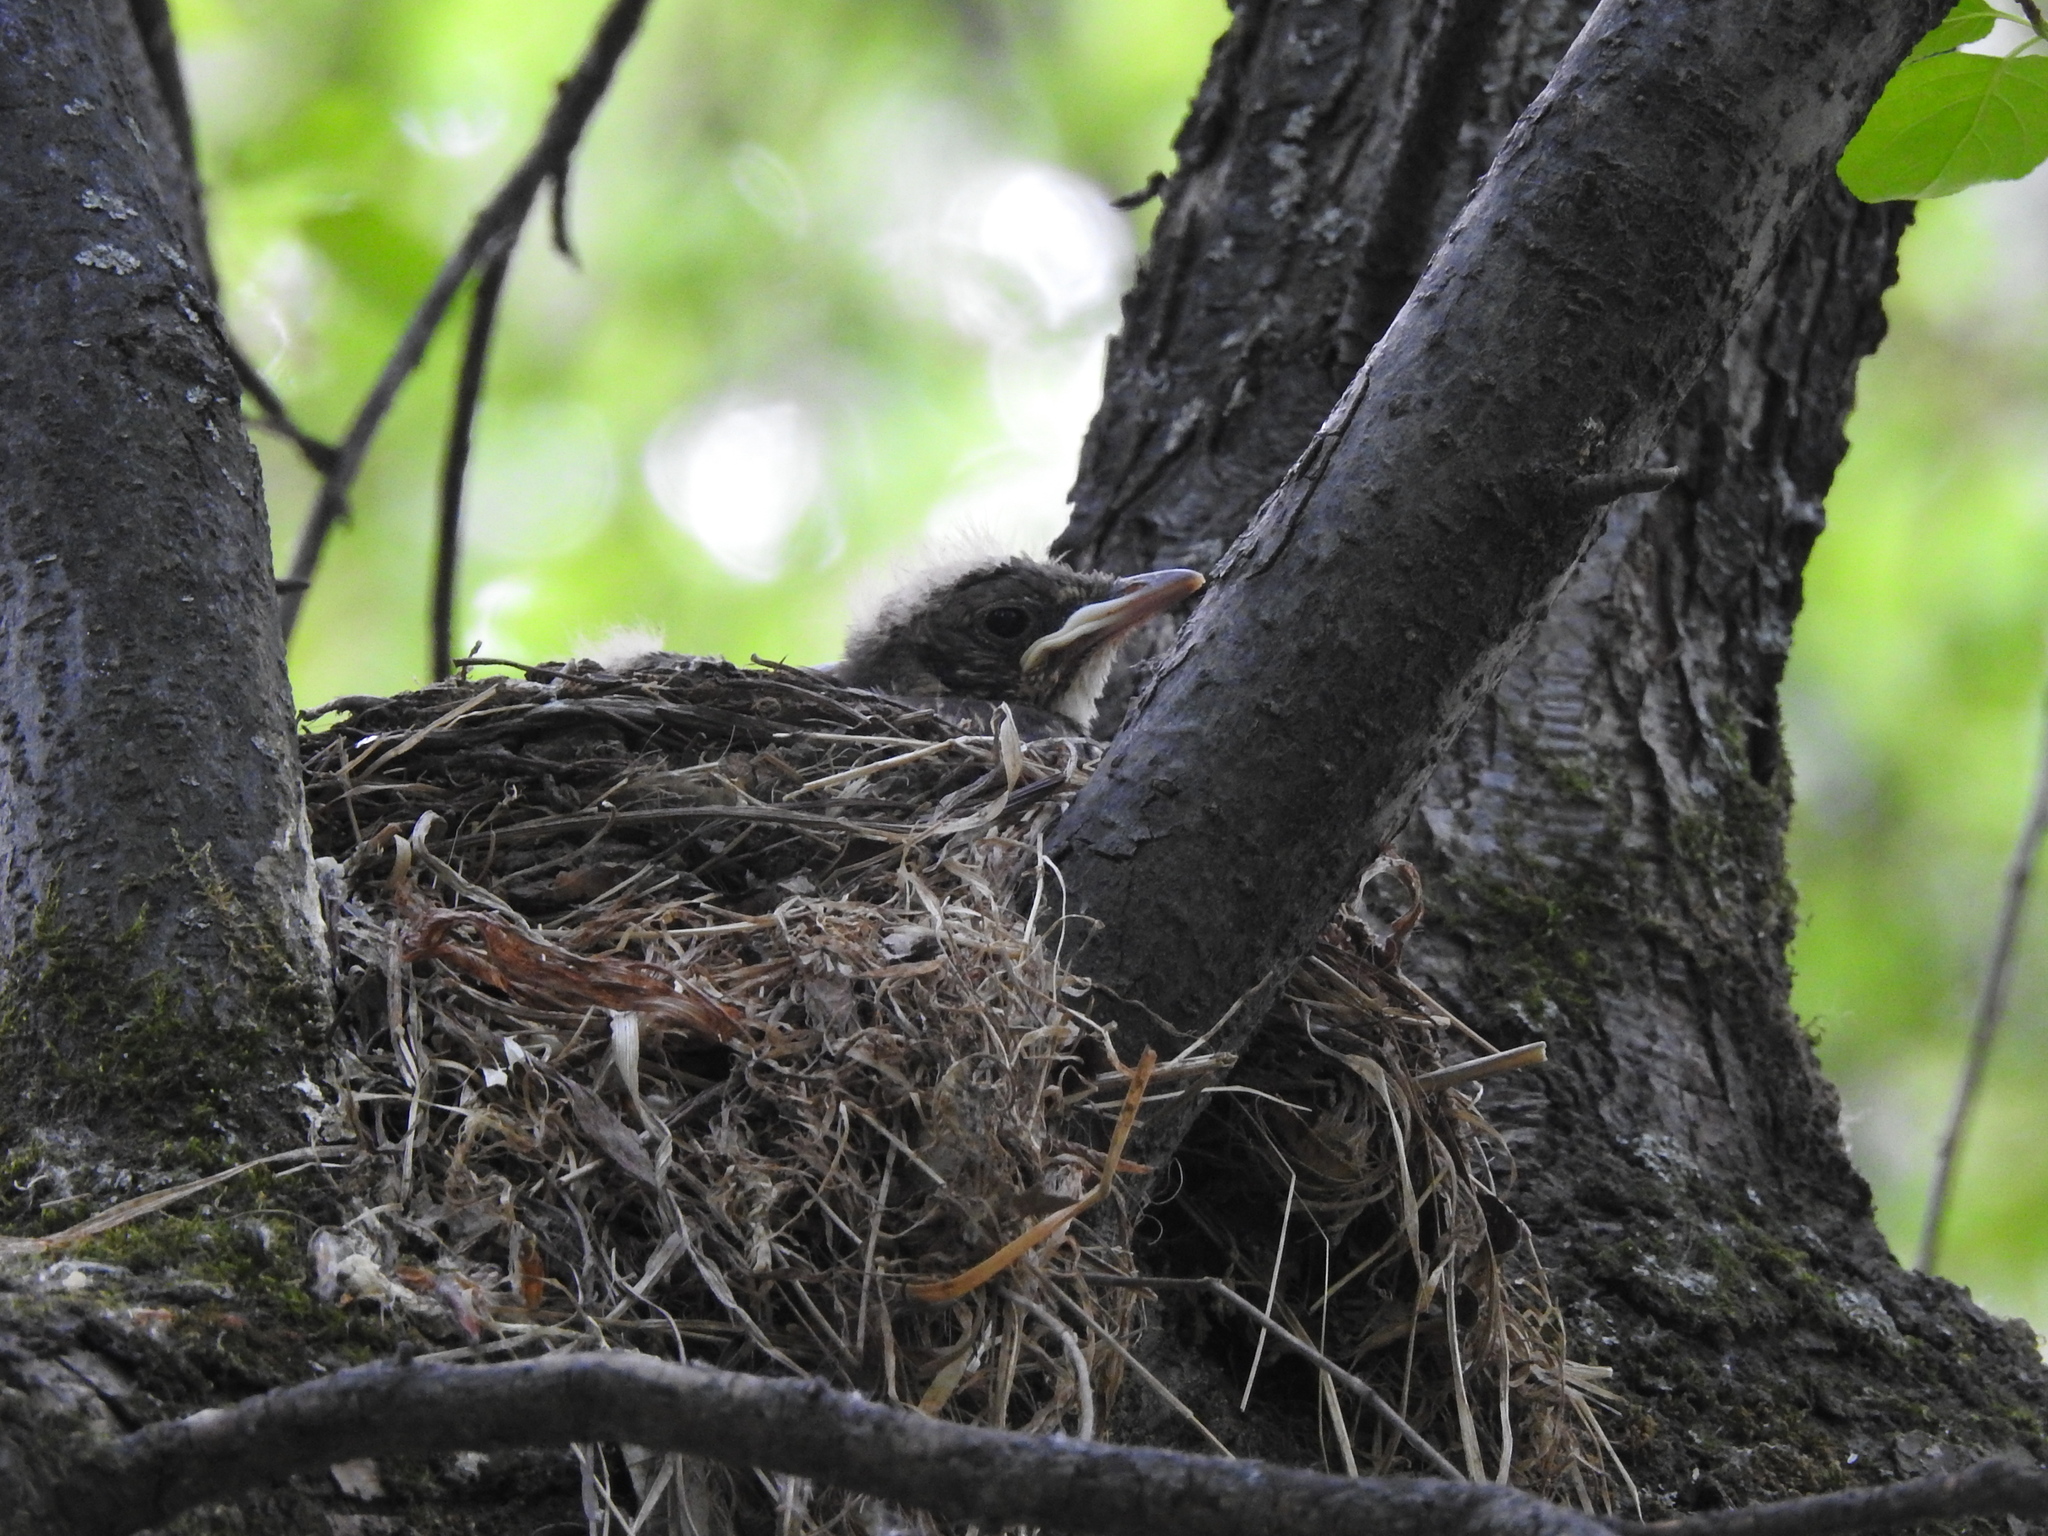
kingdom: Animalia
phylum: Chordata
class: Aves
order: Passeriformes
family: Turdidae
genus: Turdus
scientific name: Turdus pilaris
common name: Fieldfare
